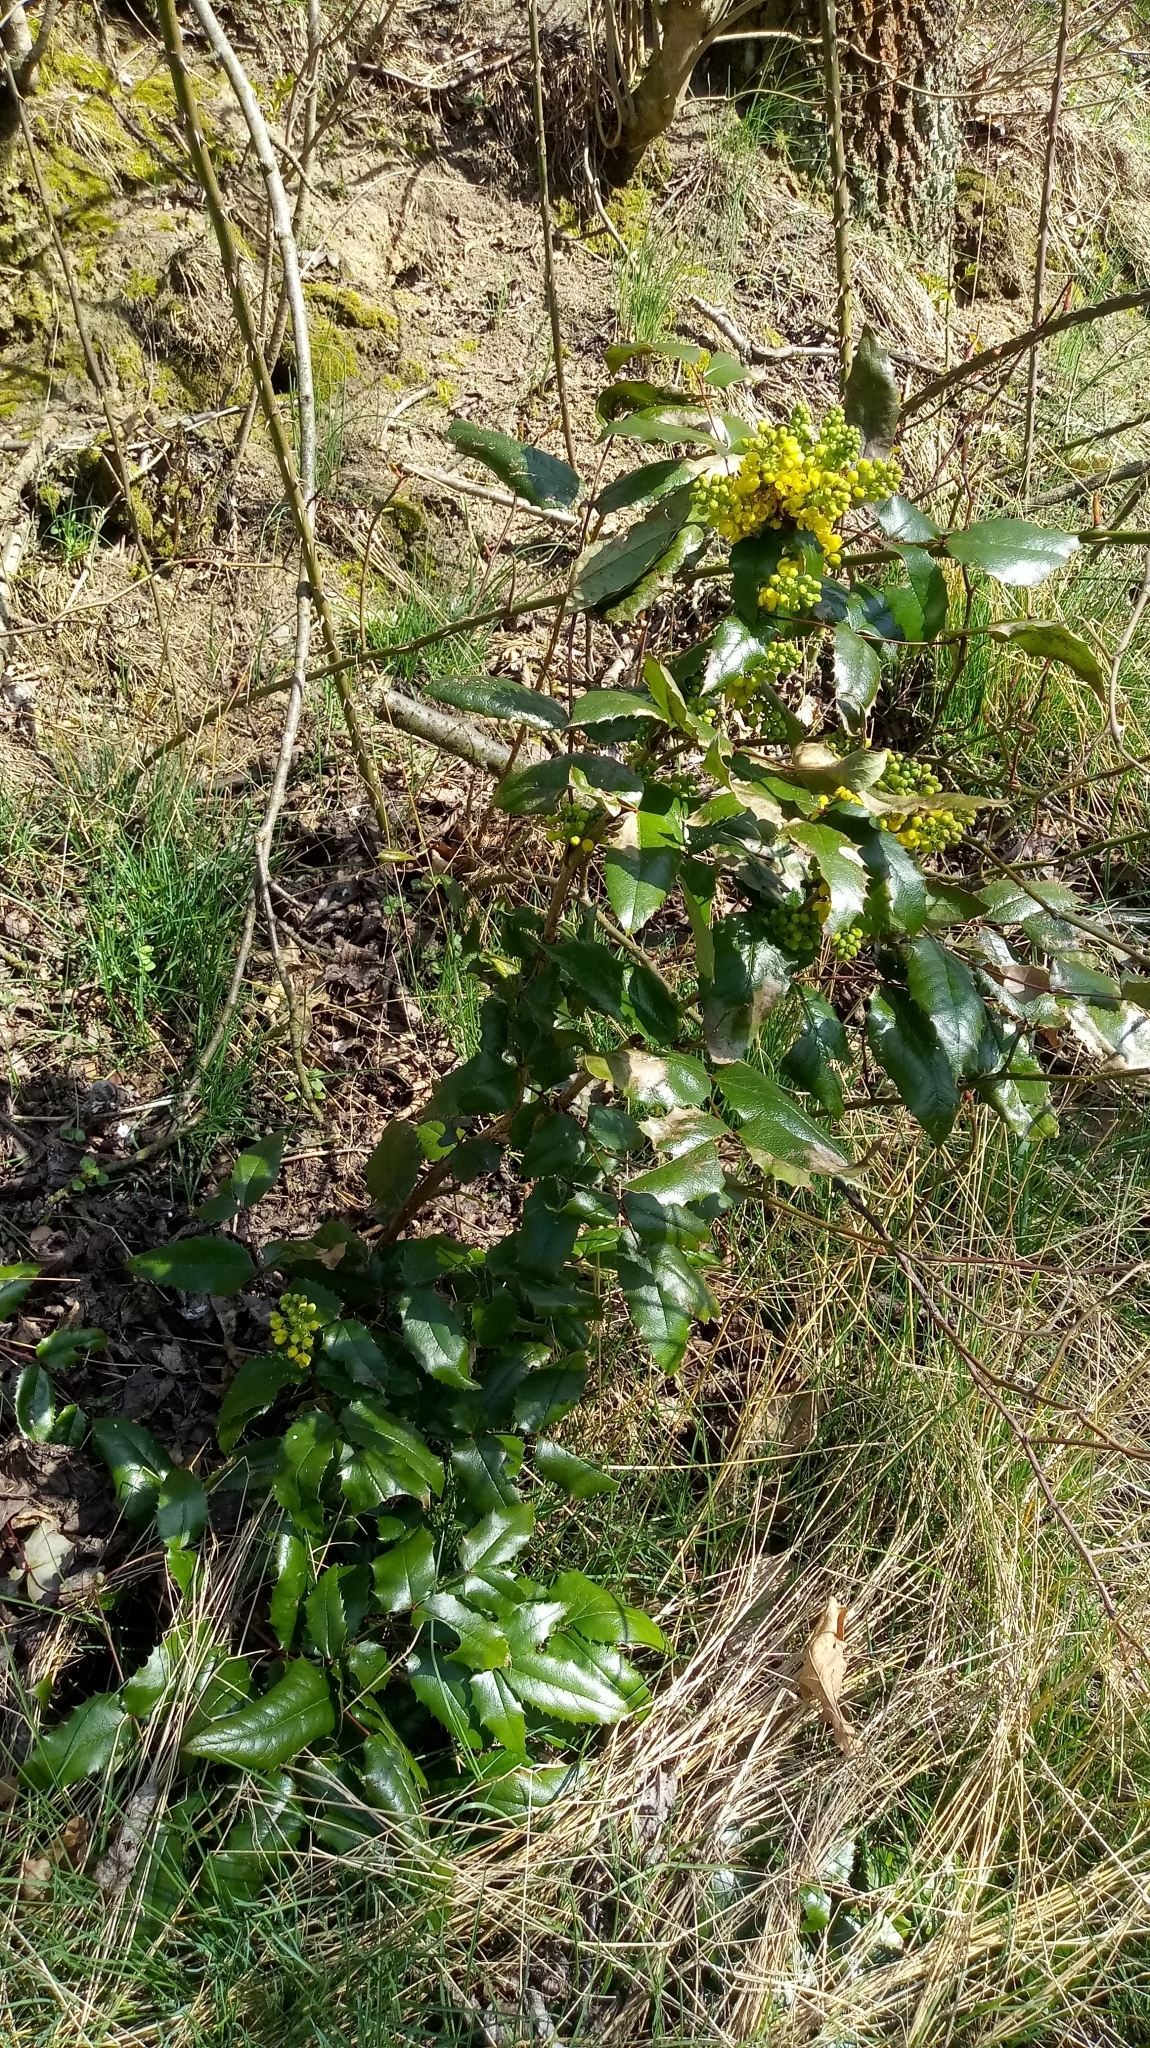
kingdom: Plantae
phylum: Tracheophyta
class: Magnoliopsida
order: Ranunculales
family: Berberidaceae
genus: Mahonia
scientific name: Mahonia aquifolium
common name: Oregon-grape
